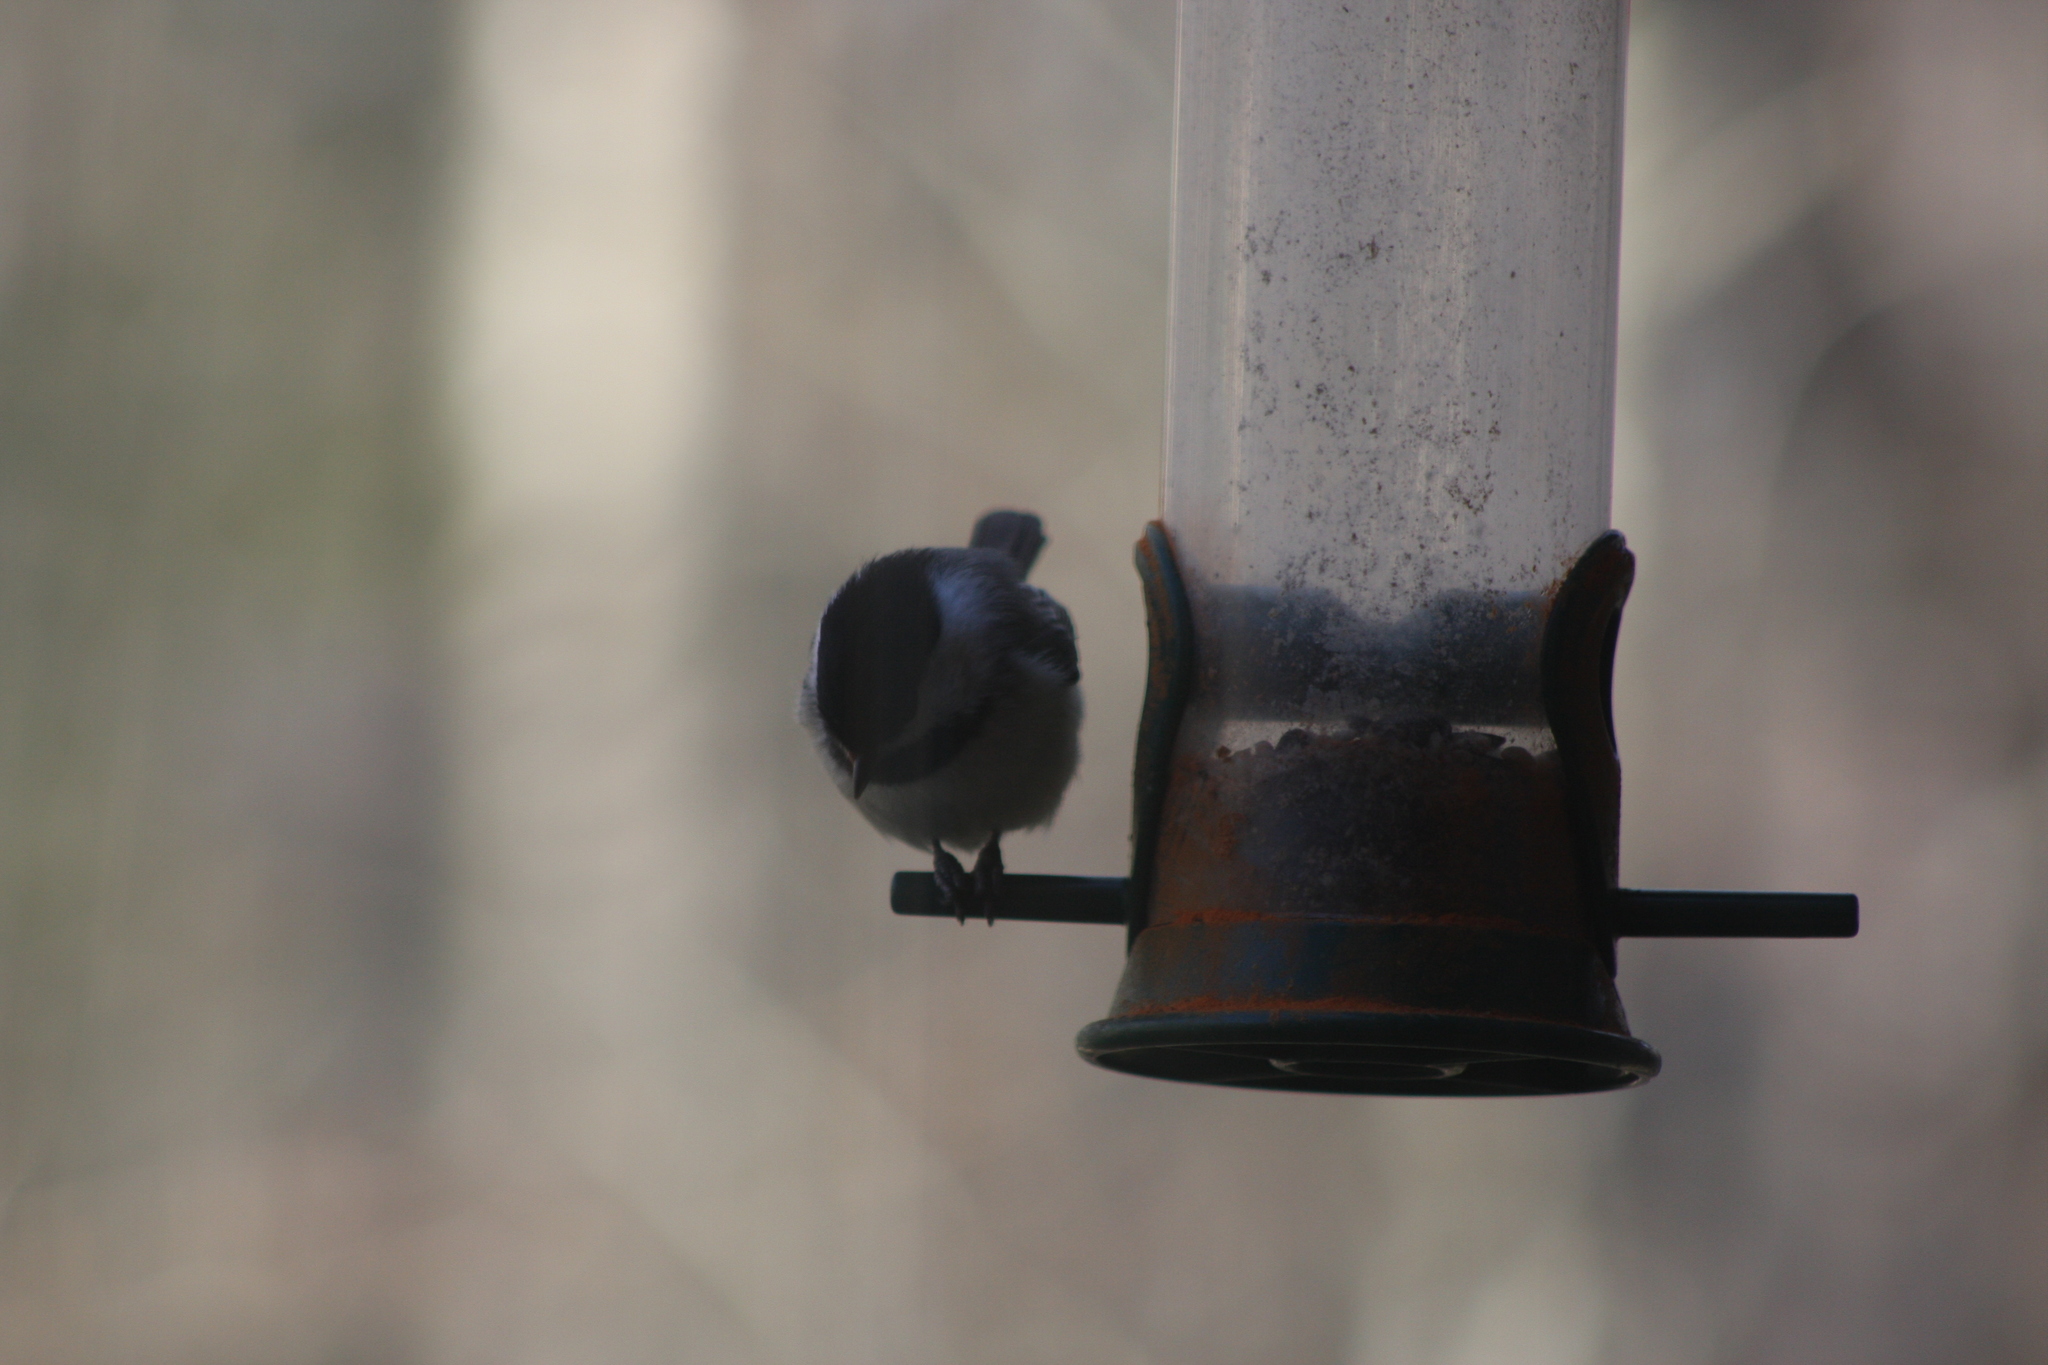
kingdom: Animalia
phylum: Chordata
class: Aves
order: Passeriformes
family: Paridae
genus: Poecile
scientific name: Poecile atricapillus
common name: Black-capped chickadee
